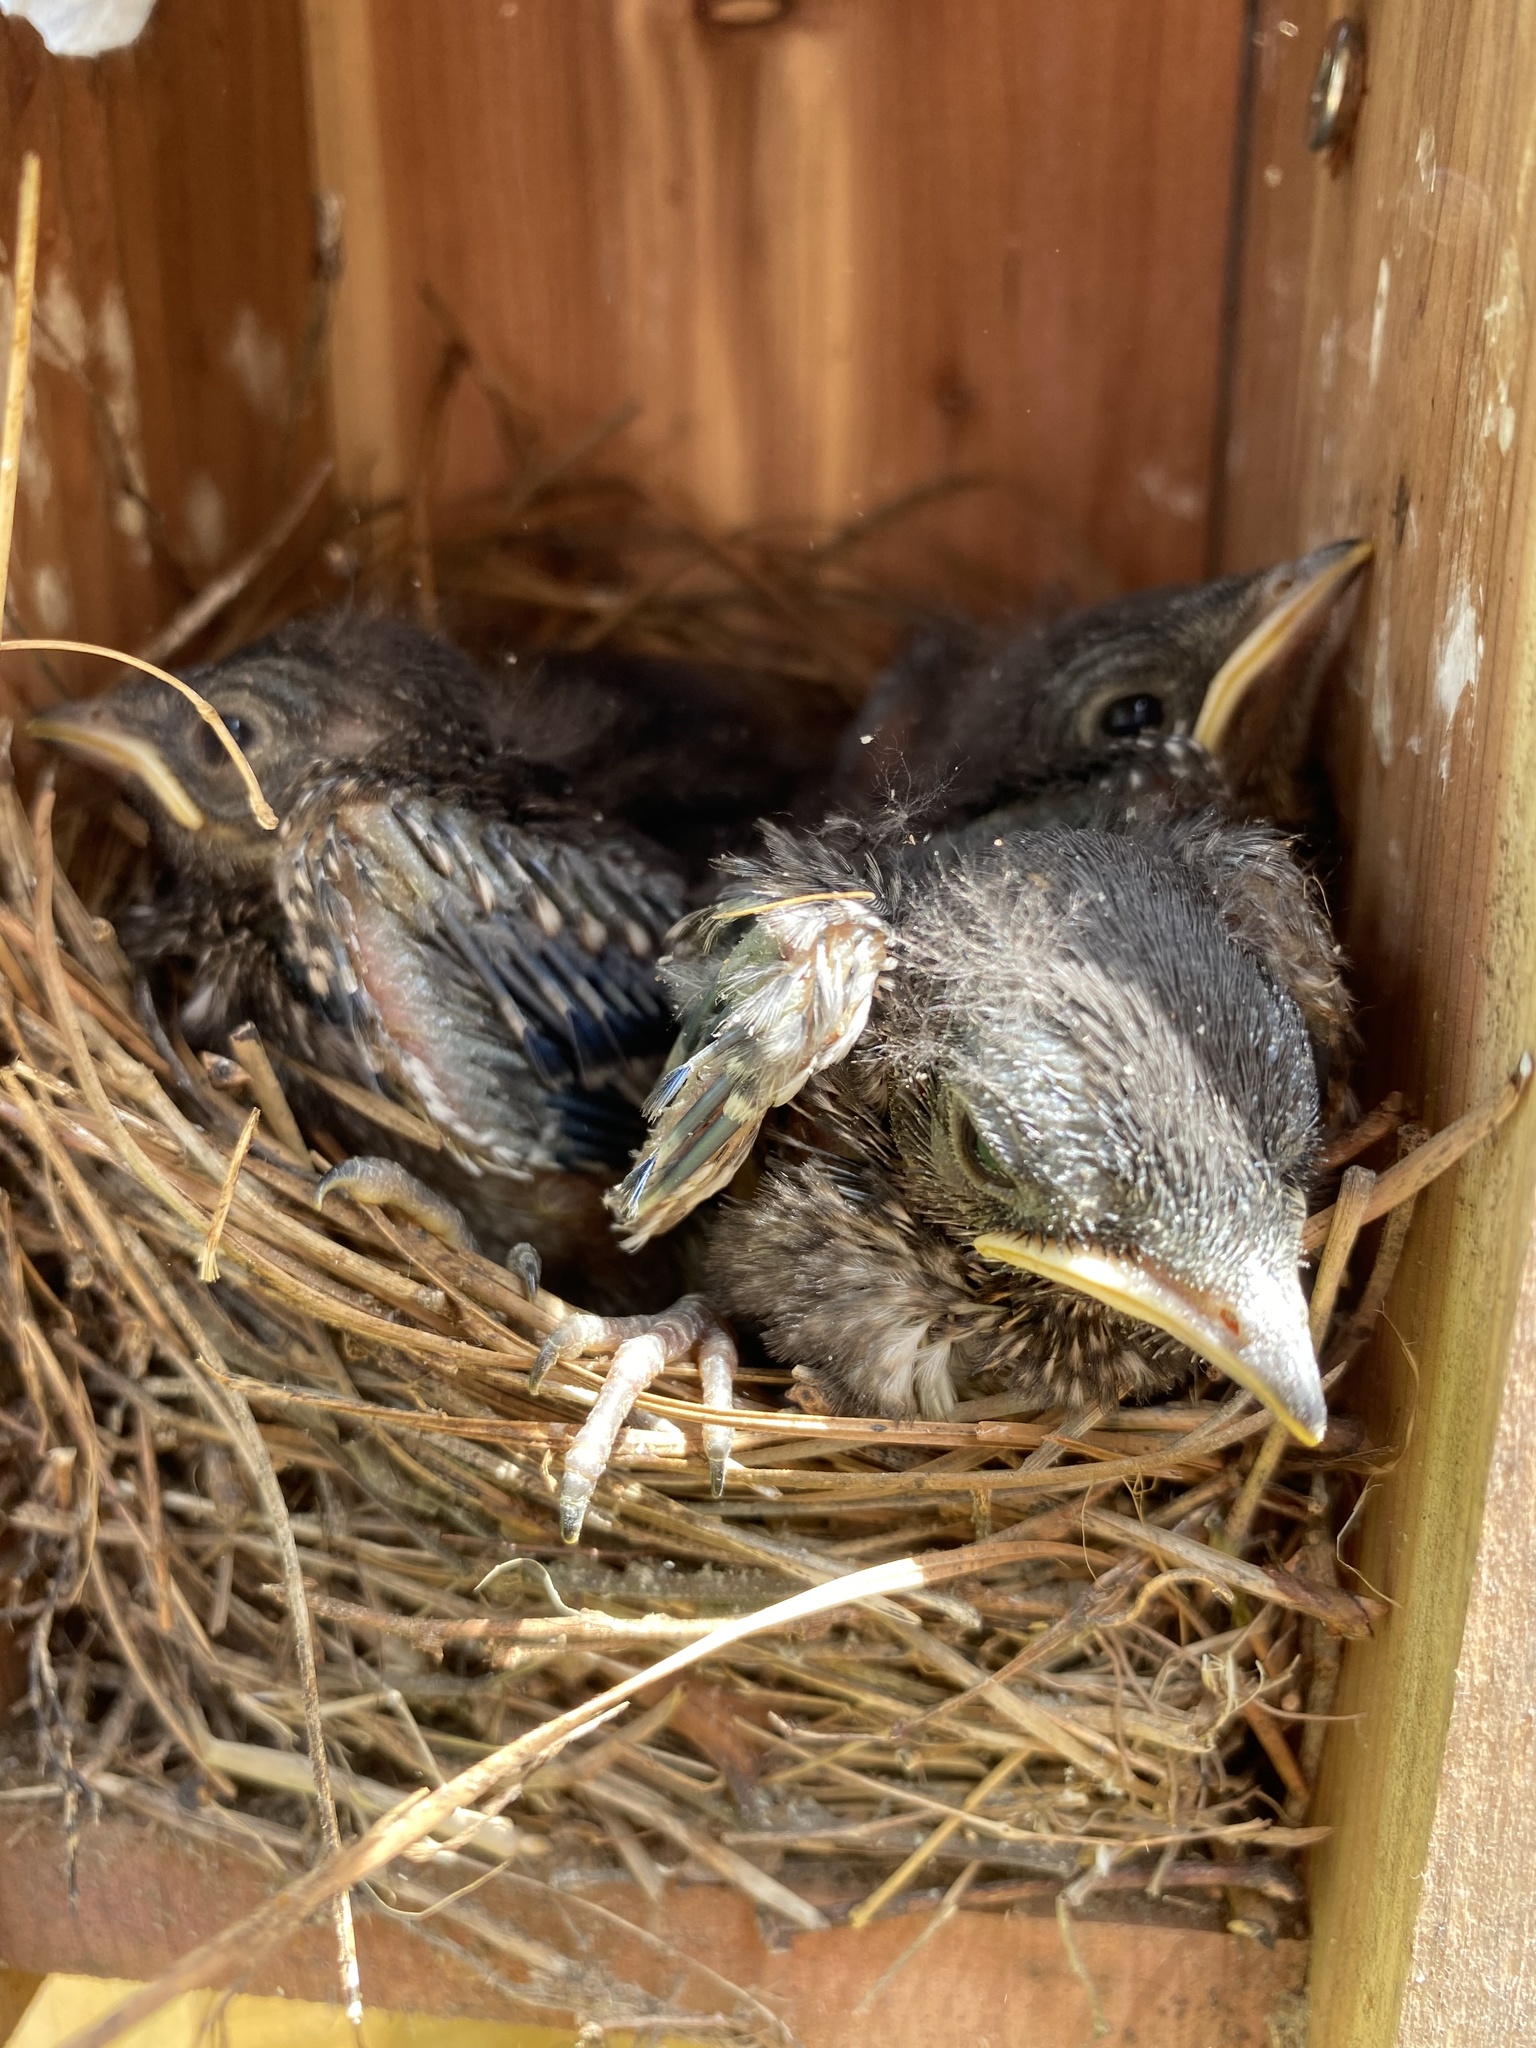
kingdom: Animalia
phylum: Chordata
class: Aves
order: Passeriformes
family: Turdidae
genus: Sialia
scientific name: Sialia sialis
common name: Eastern bluebird
